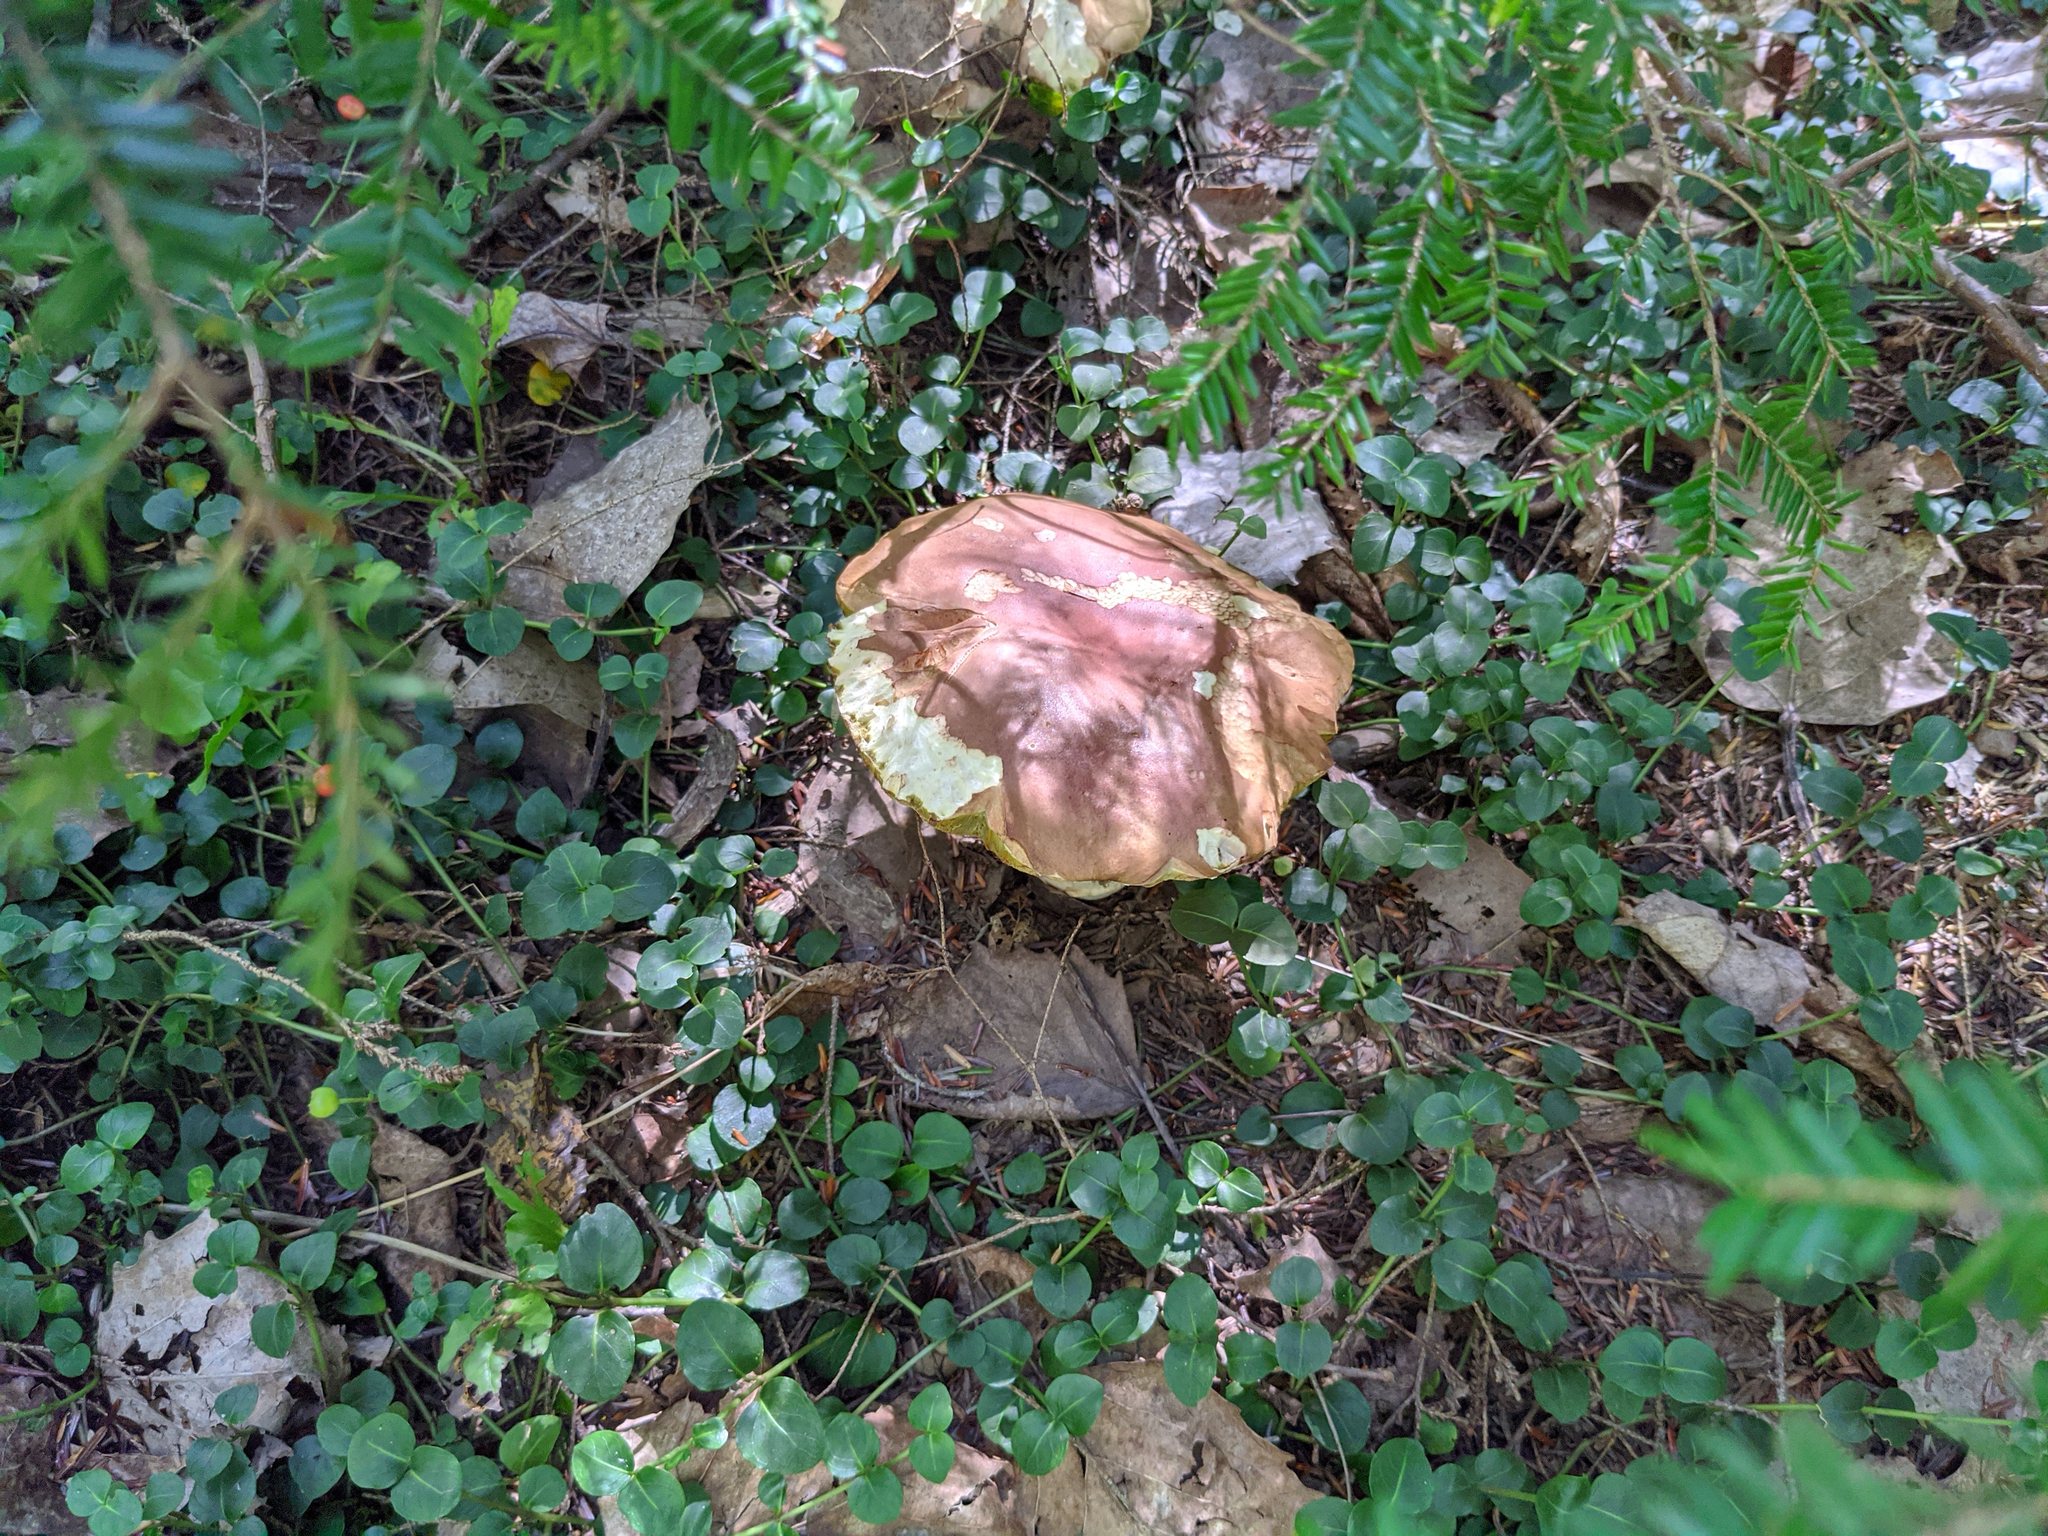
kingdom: Plantae
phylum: Tracheophyta
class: Magnoliopsida
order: Gentianales
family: Rubiaceae
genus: Mitchella
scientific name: Mitchella repens
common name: Partridge-berry
